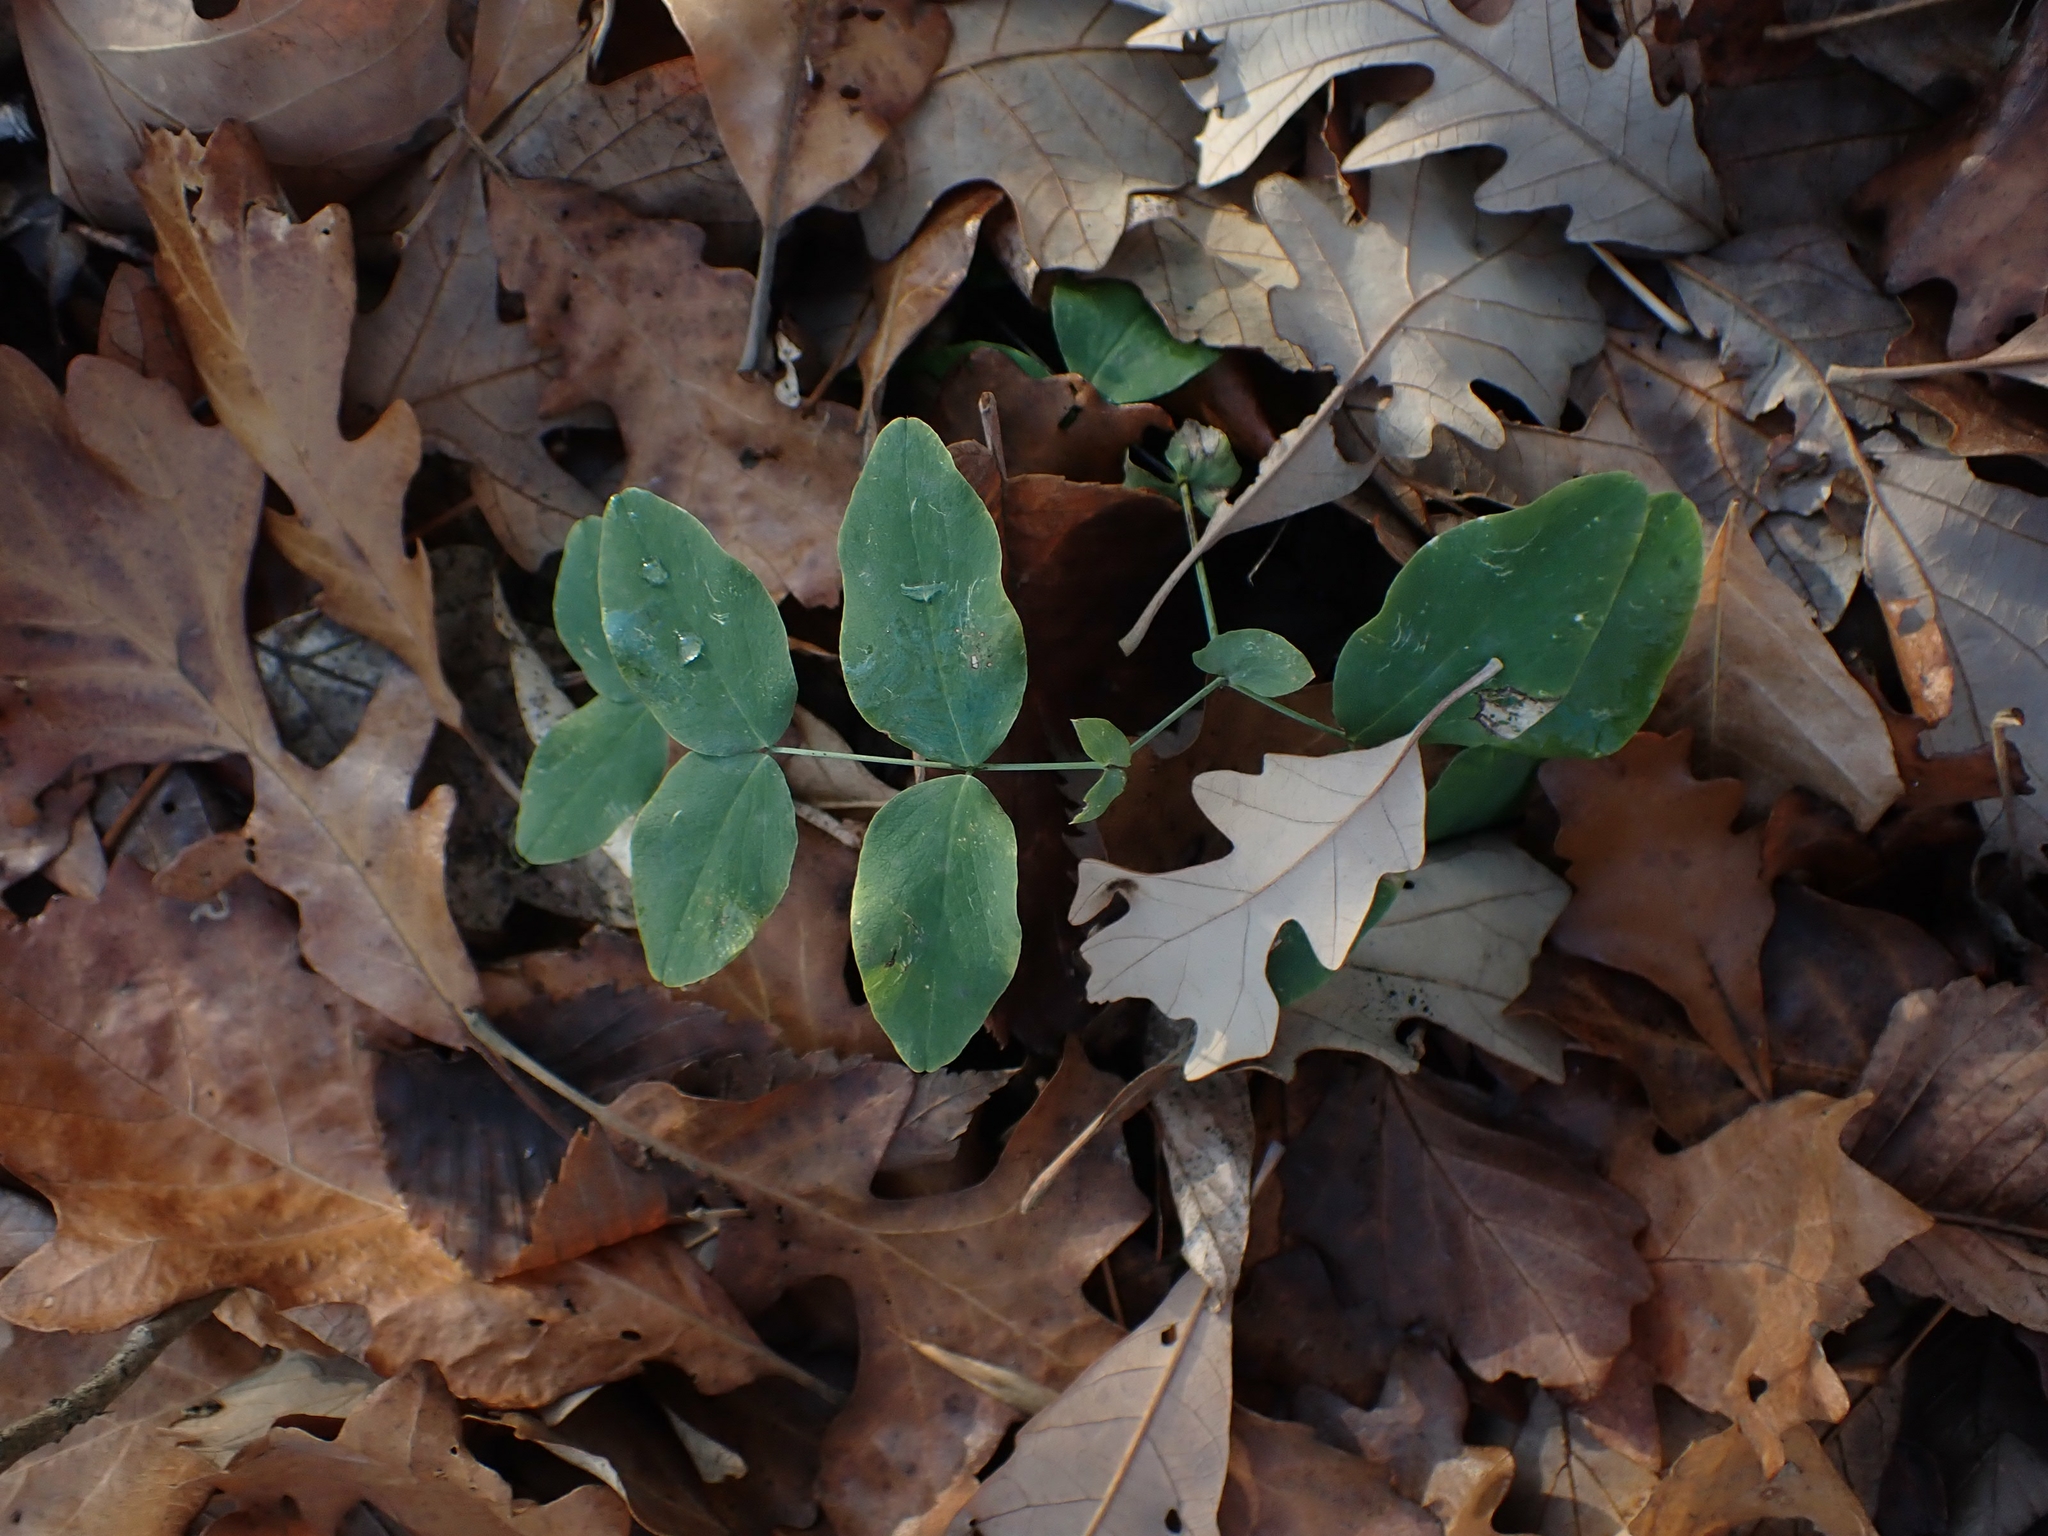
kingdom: Plantae
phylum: Tracheophyta
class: Magnoliopsida
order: Fabales
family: Fabaceae
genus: Lathyrus
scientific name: Lathyrus ochroleucus
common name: Pale vetchling
